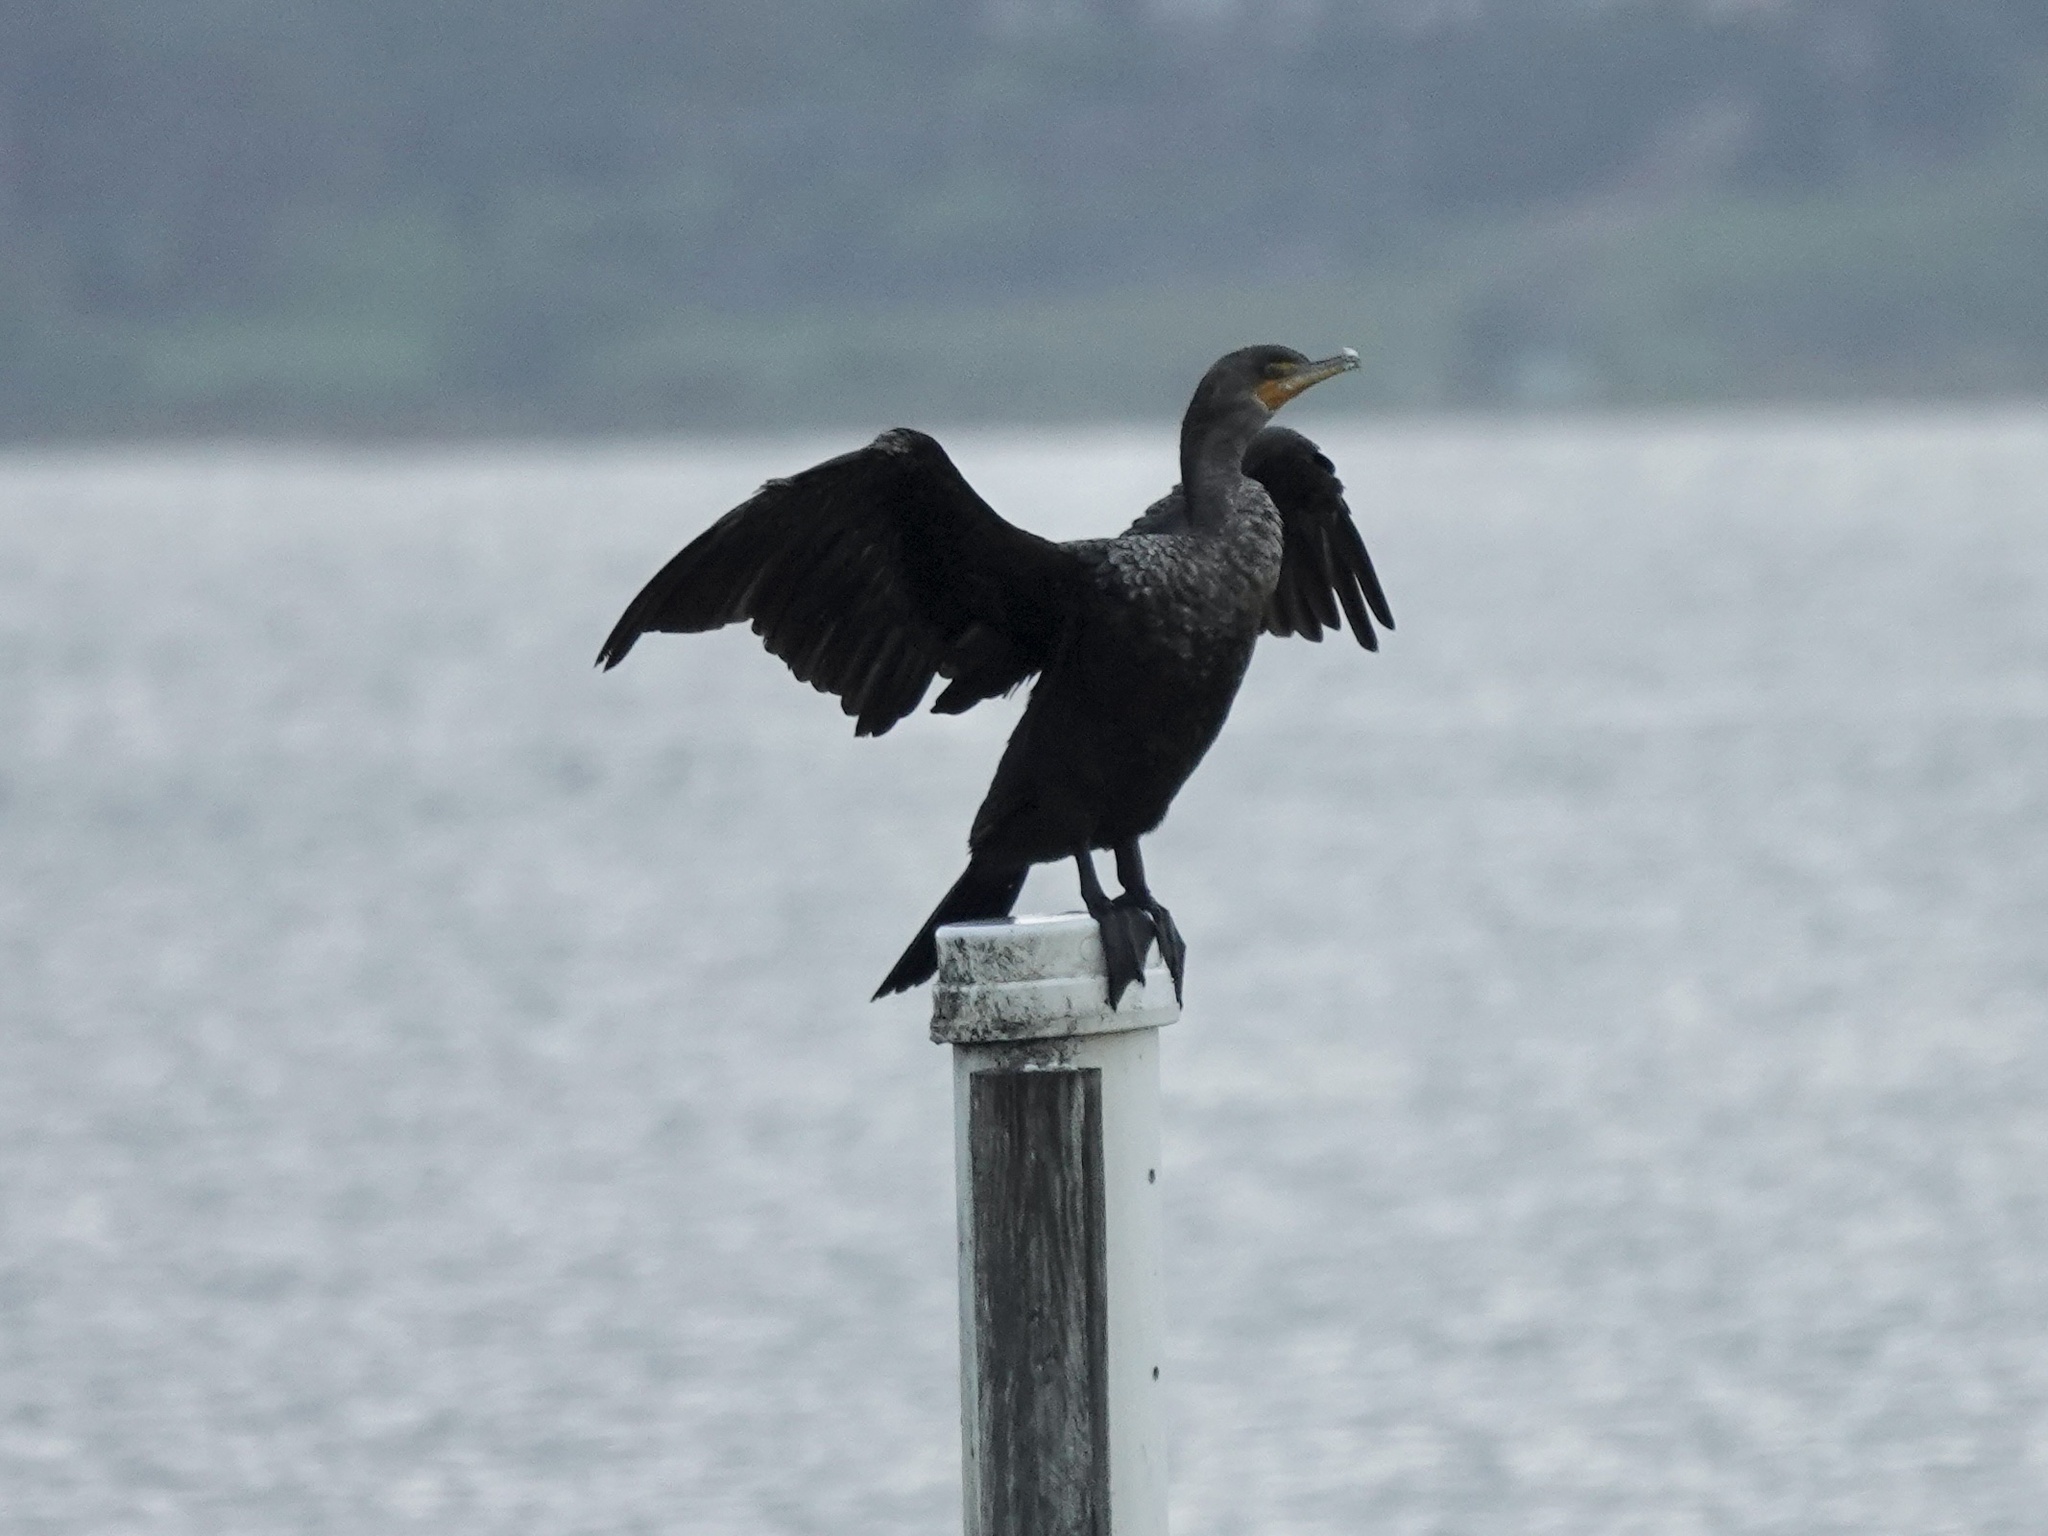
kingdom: Animalia
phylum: Chordata
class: Aves
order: Suliformes
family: Phalacrocoracidae
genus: Phalacrocorax
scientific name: Phalacrocorax auritus
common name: Double-crested cormorant
